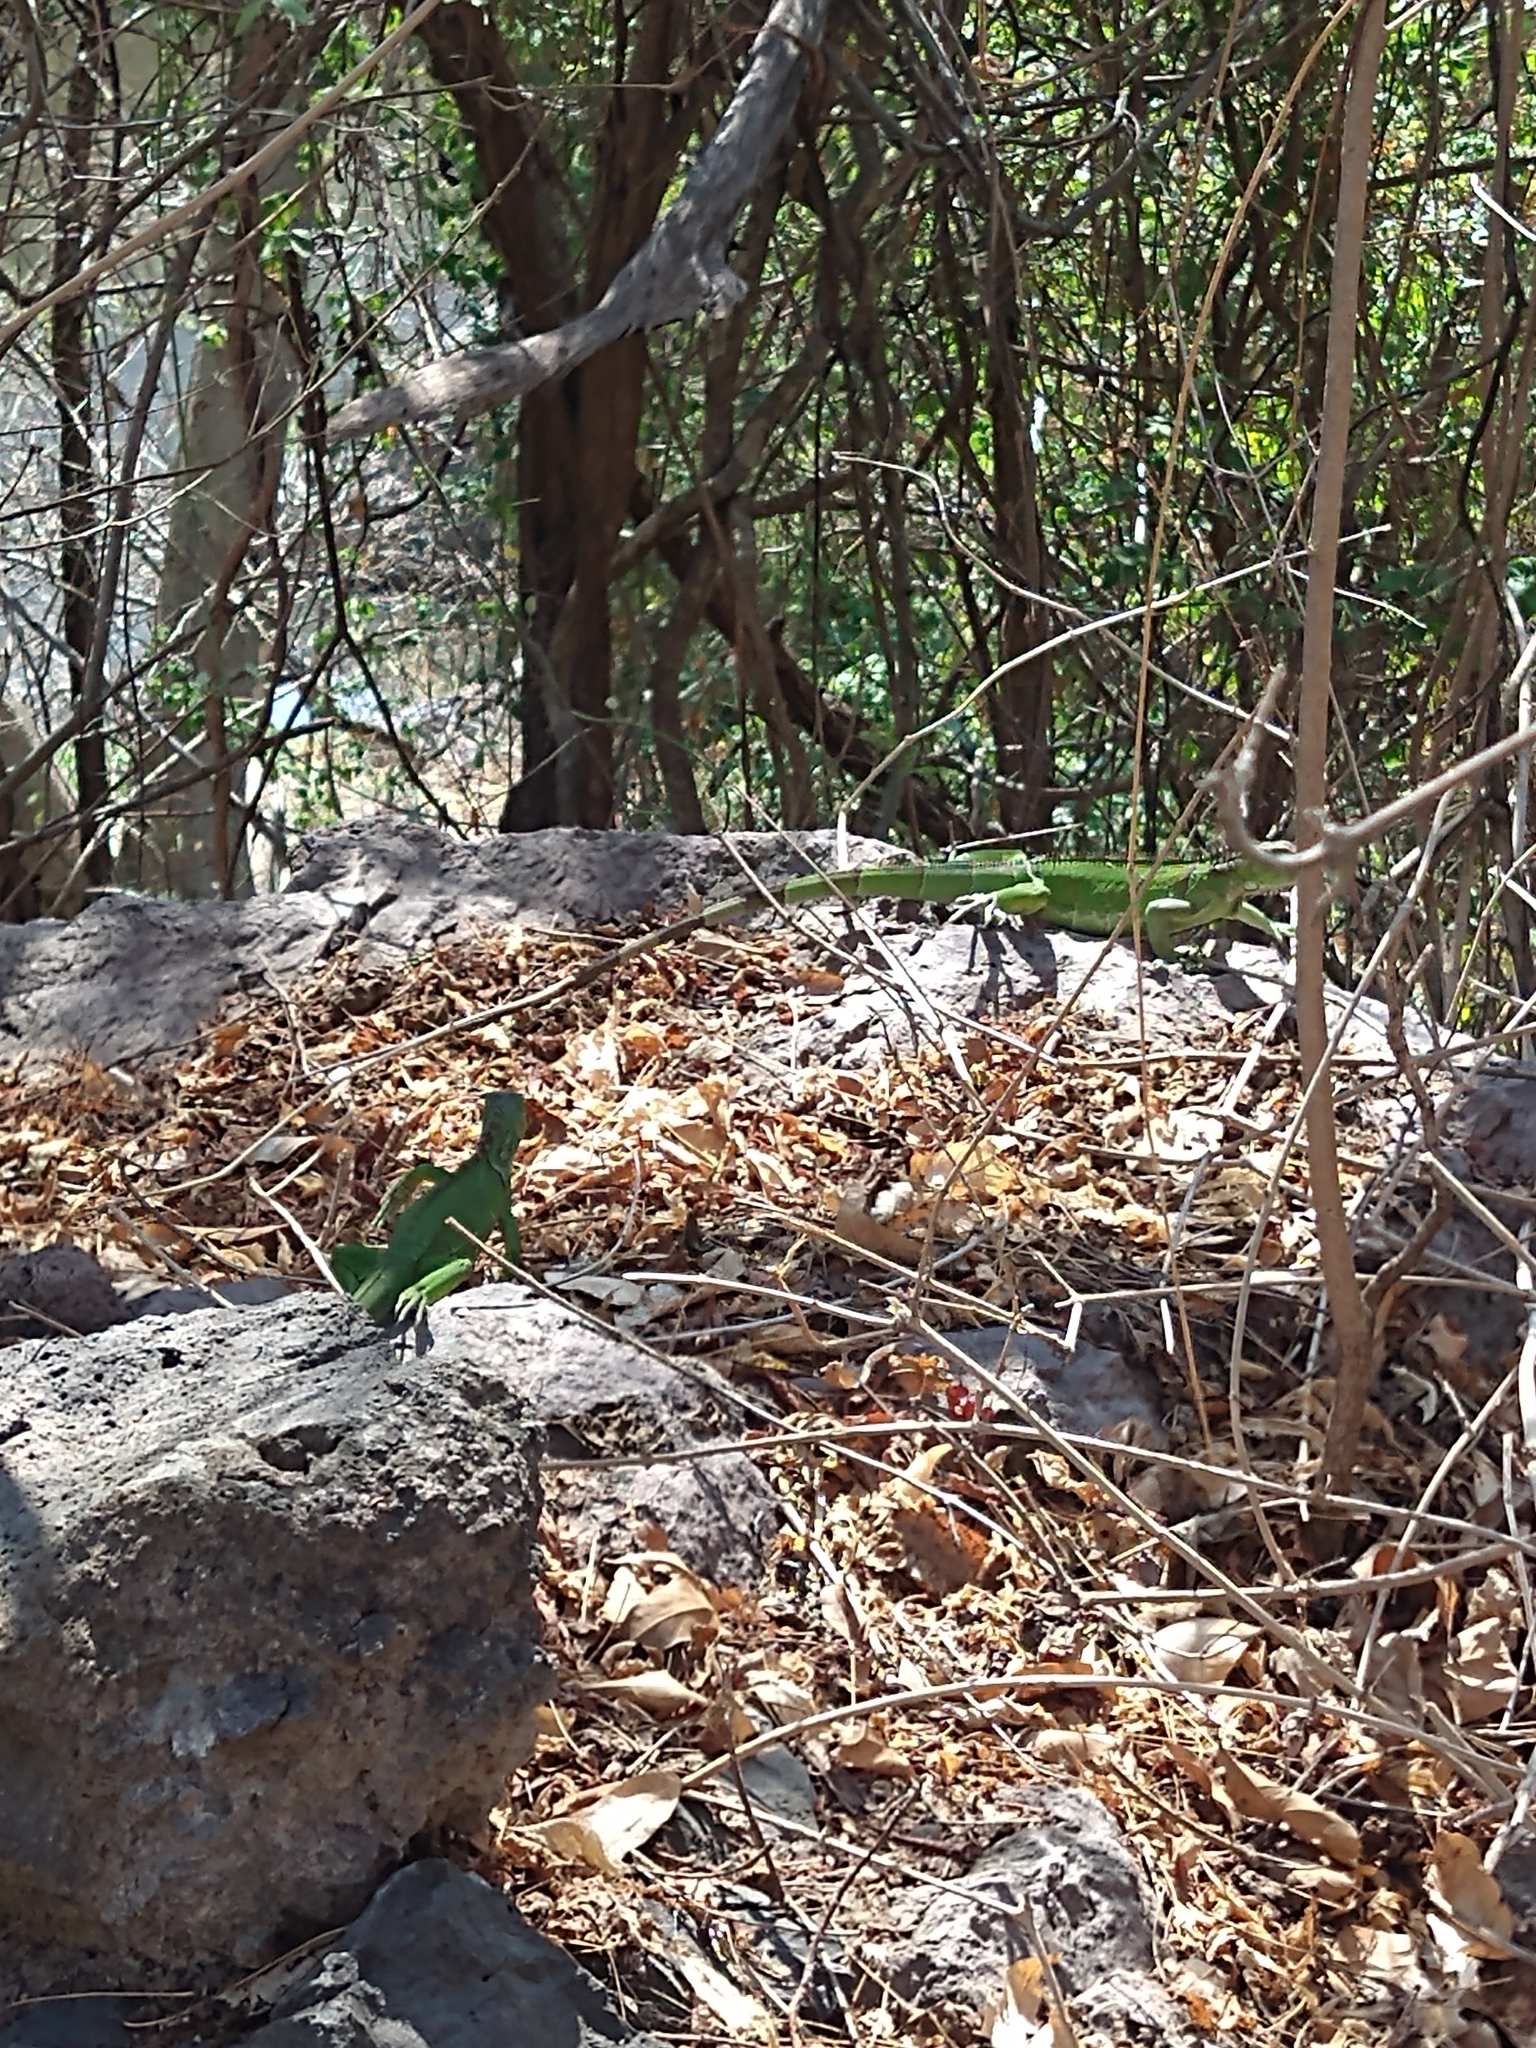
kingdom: Animalia
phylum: Chordata
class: Squamata
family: Iguanidae
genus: Iguana
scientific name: Iguana iguana
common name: Green iguana
